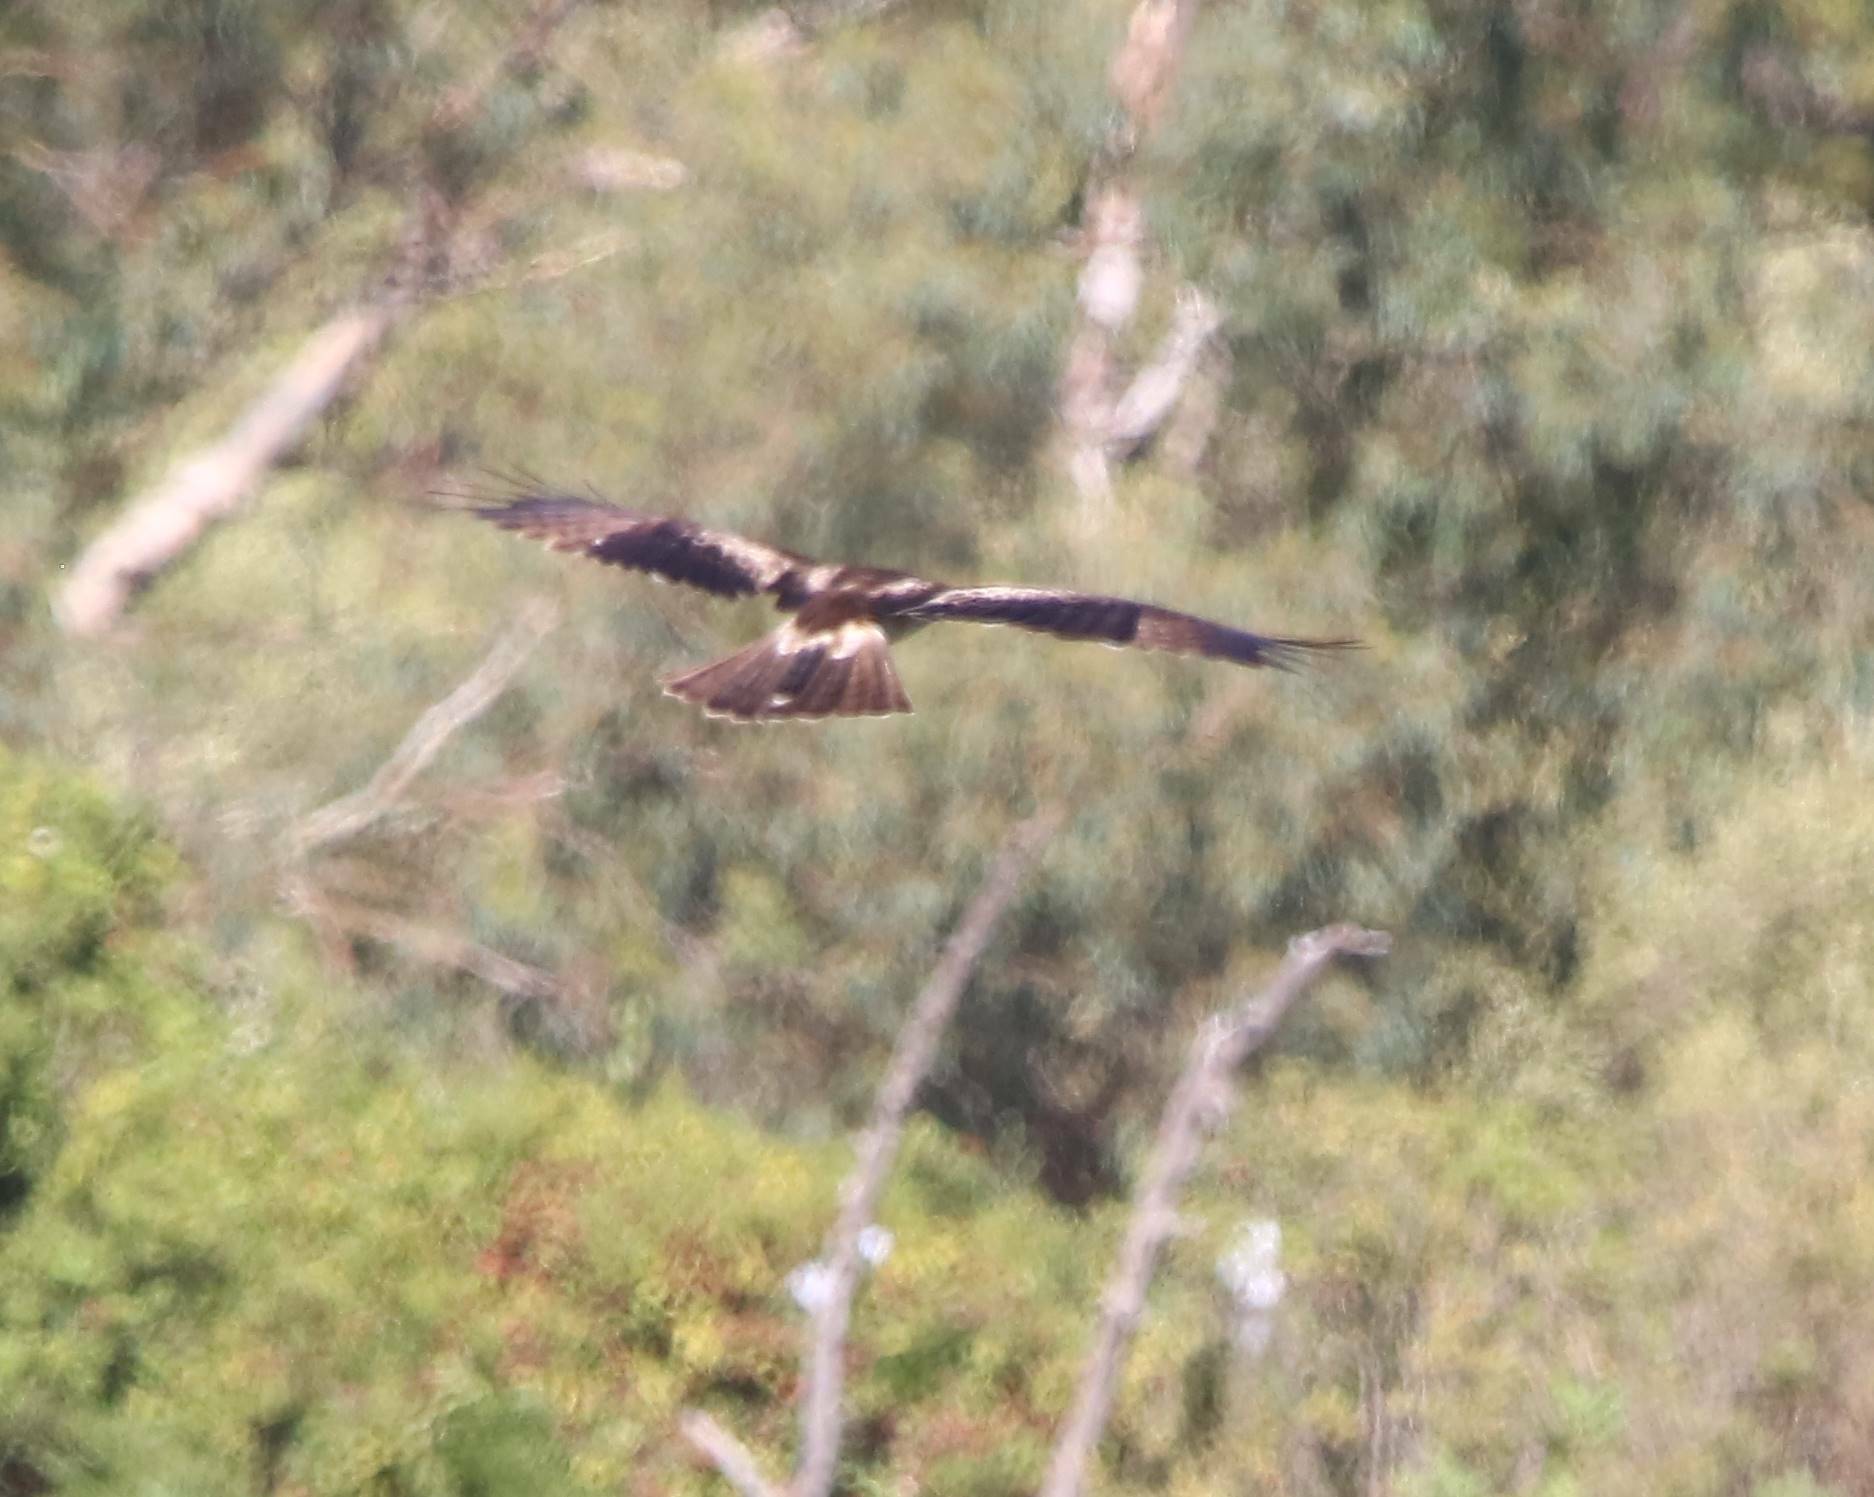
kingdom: Animalia
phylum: Chordata
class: Aves
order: Accipitriformes
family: Accipitridae
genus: Hieraaetus
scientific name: Hieraaetus pennatus
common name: Booted eagle
